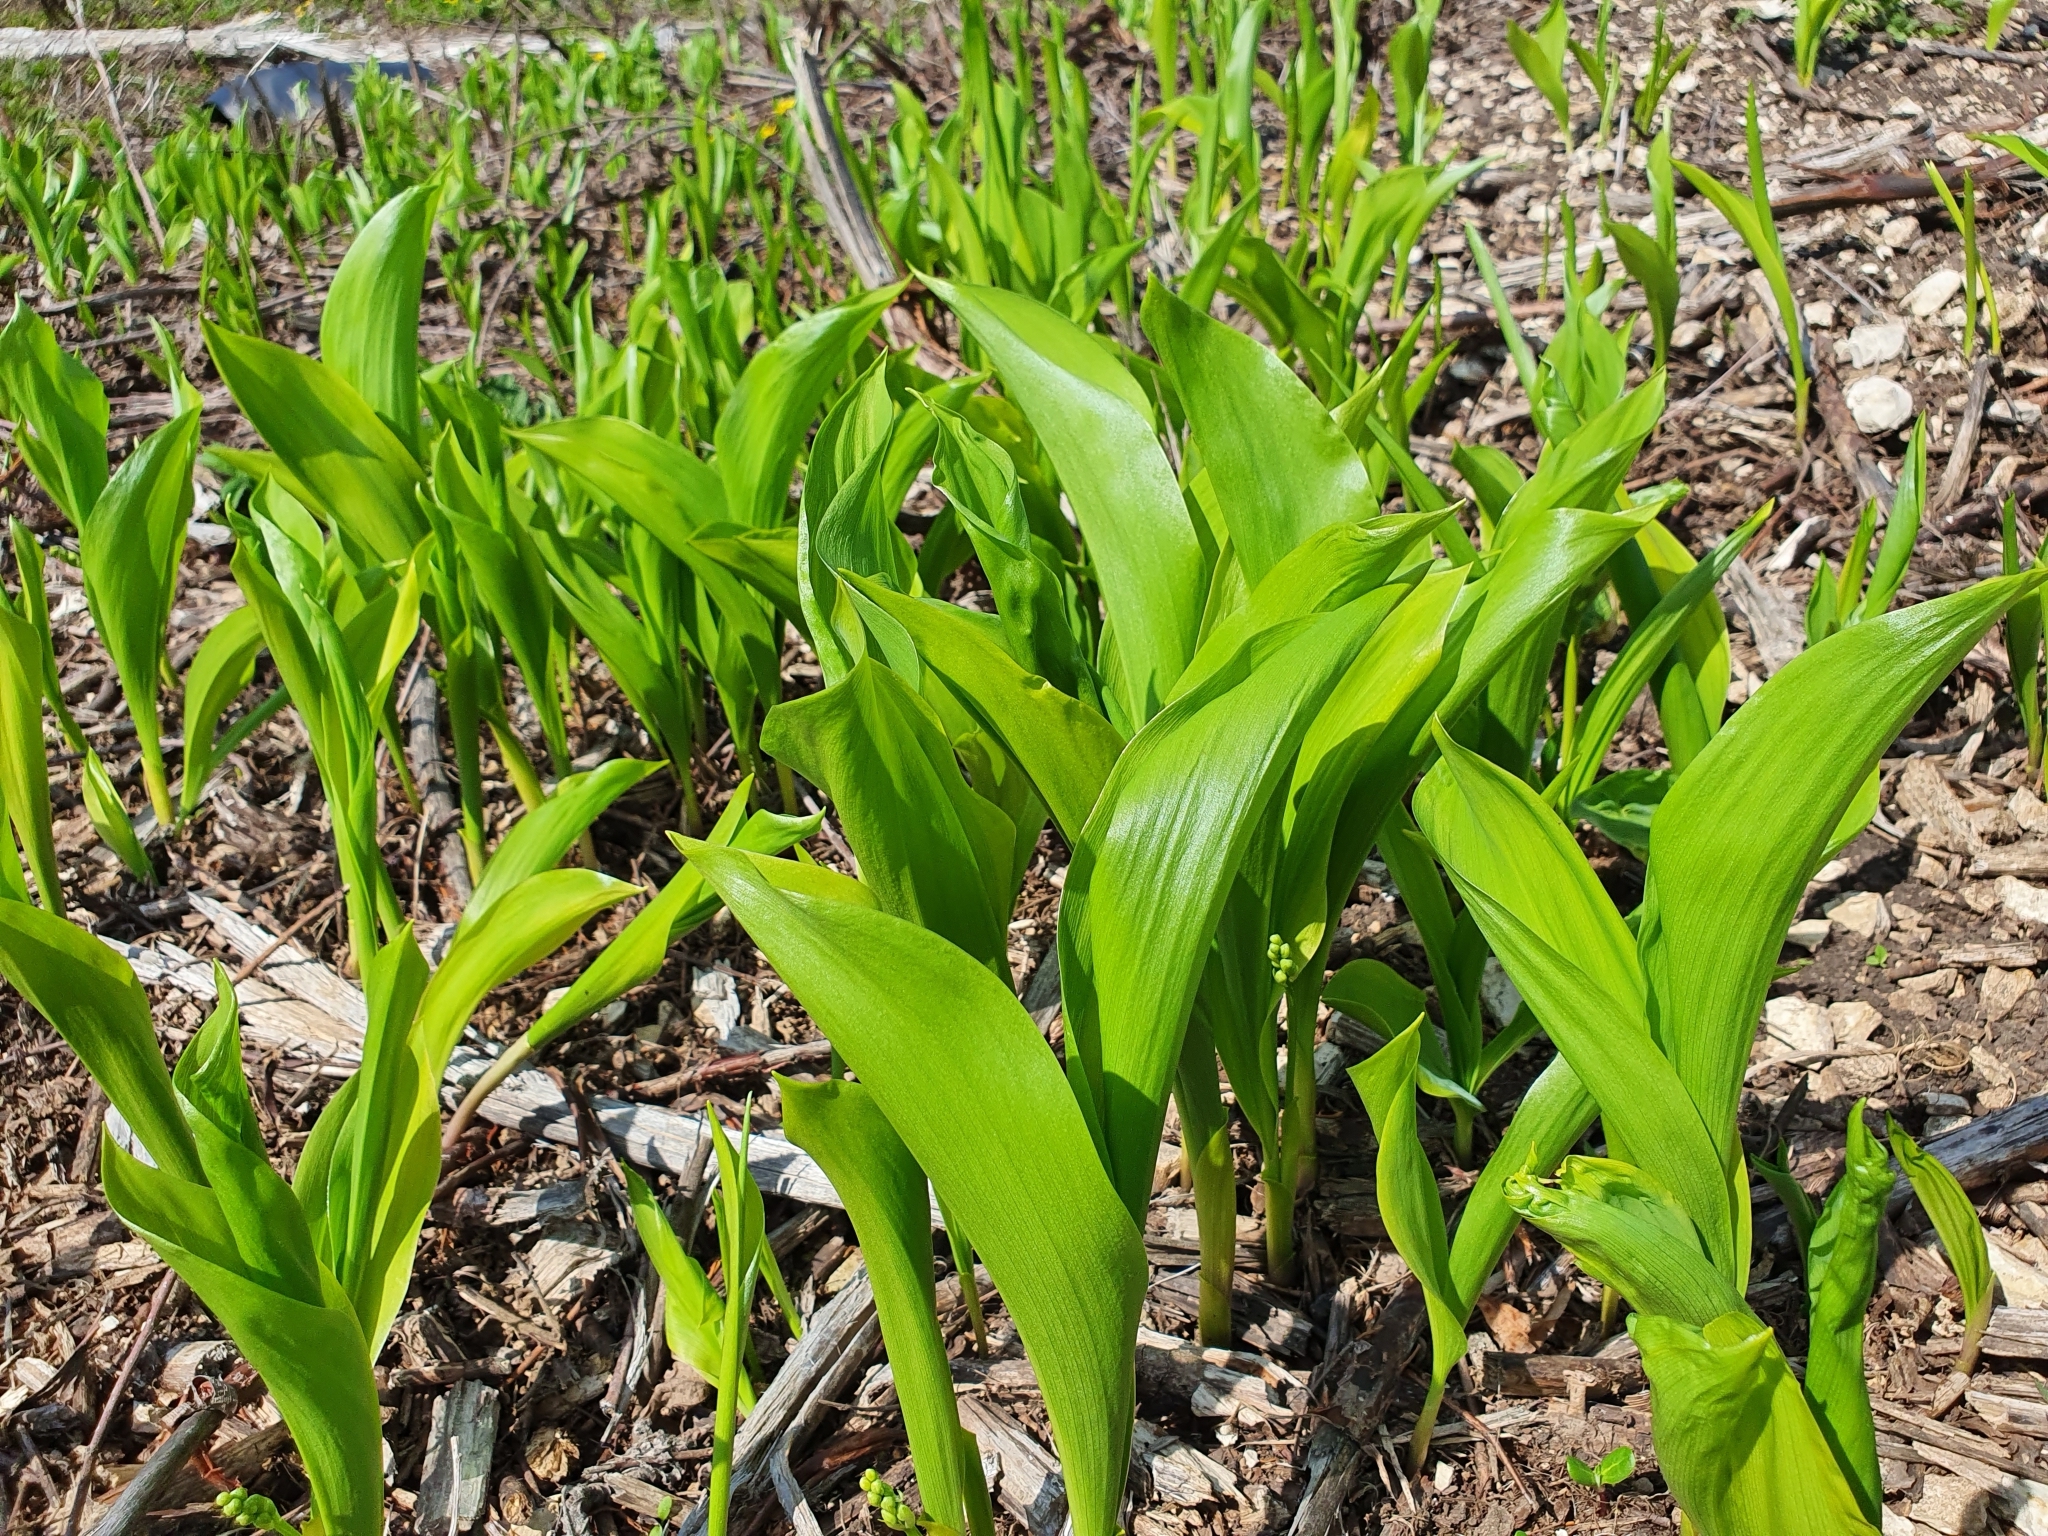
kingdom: Plantae
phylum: Tracheophyta
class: Liliopsida
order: Asparagales
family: Asparagaceae
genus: Convallaria
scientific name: Convallaria majalis
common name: Lily-of-the-valley
